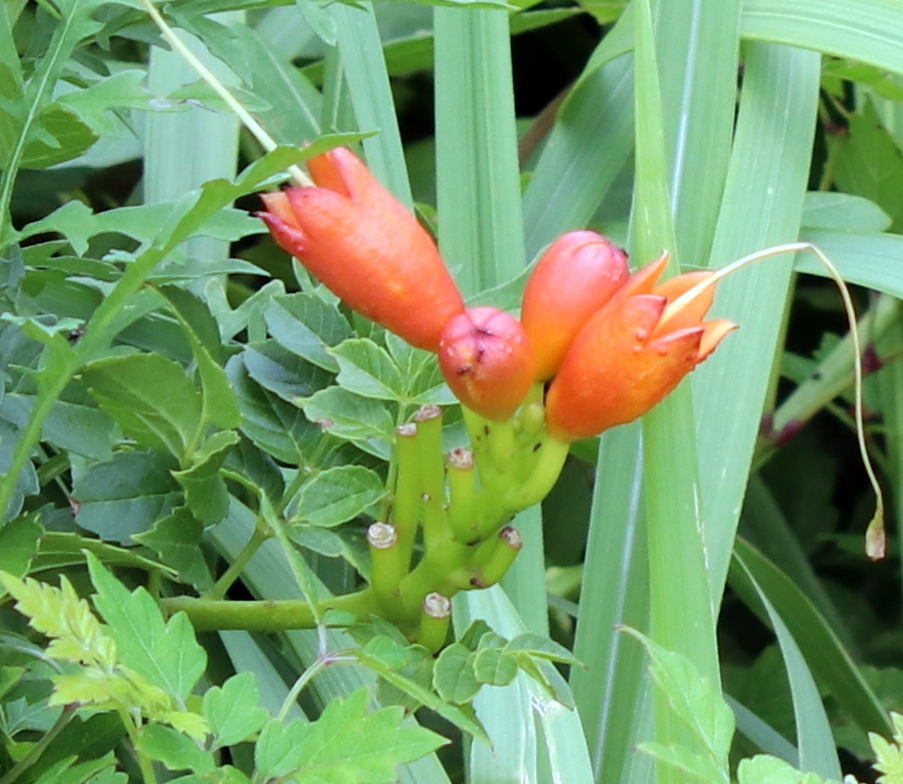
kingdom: Plantae
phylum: Tracheophyta
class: Magnoliopsida
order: Lamiales
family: Bignoniaceae
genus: Campsis
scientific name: Campsis radicans
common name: Trumpet-creeper
